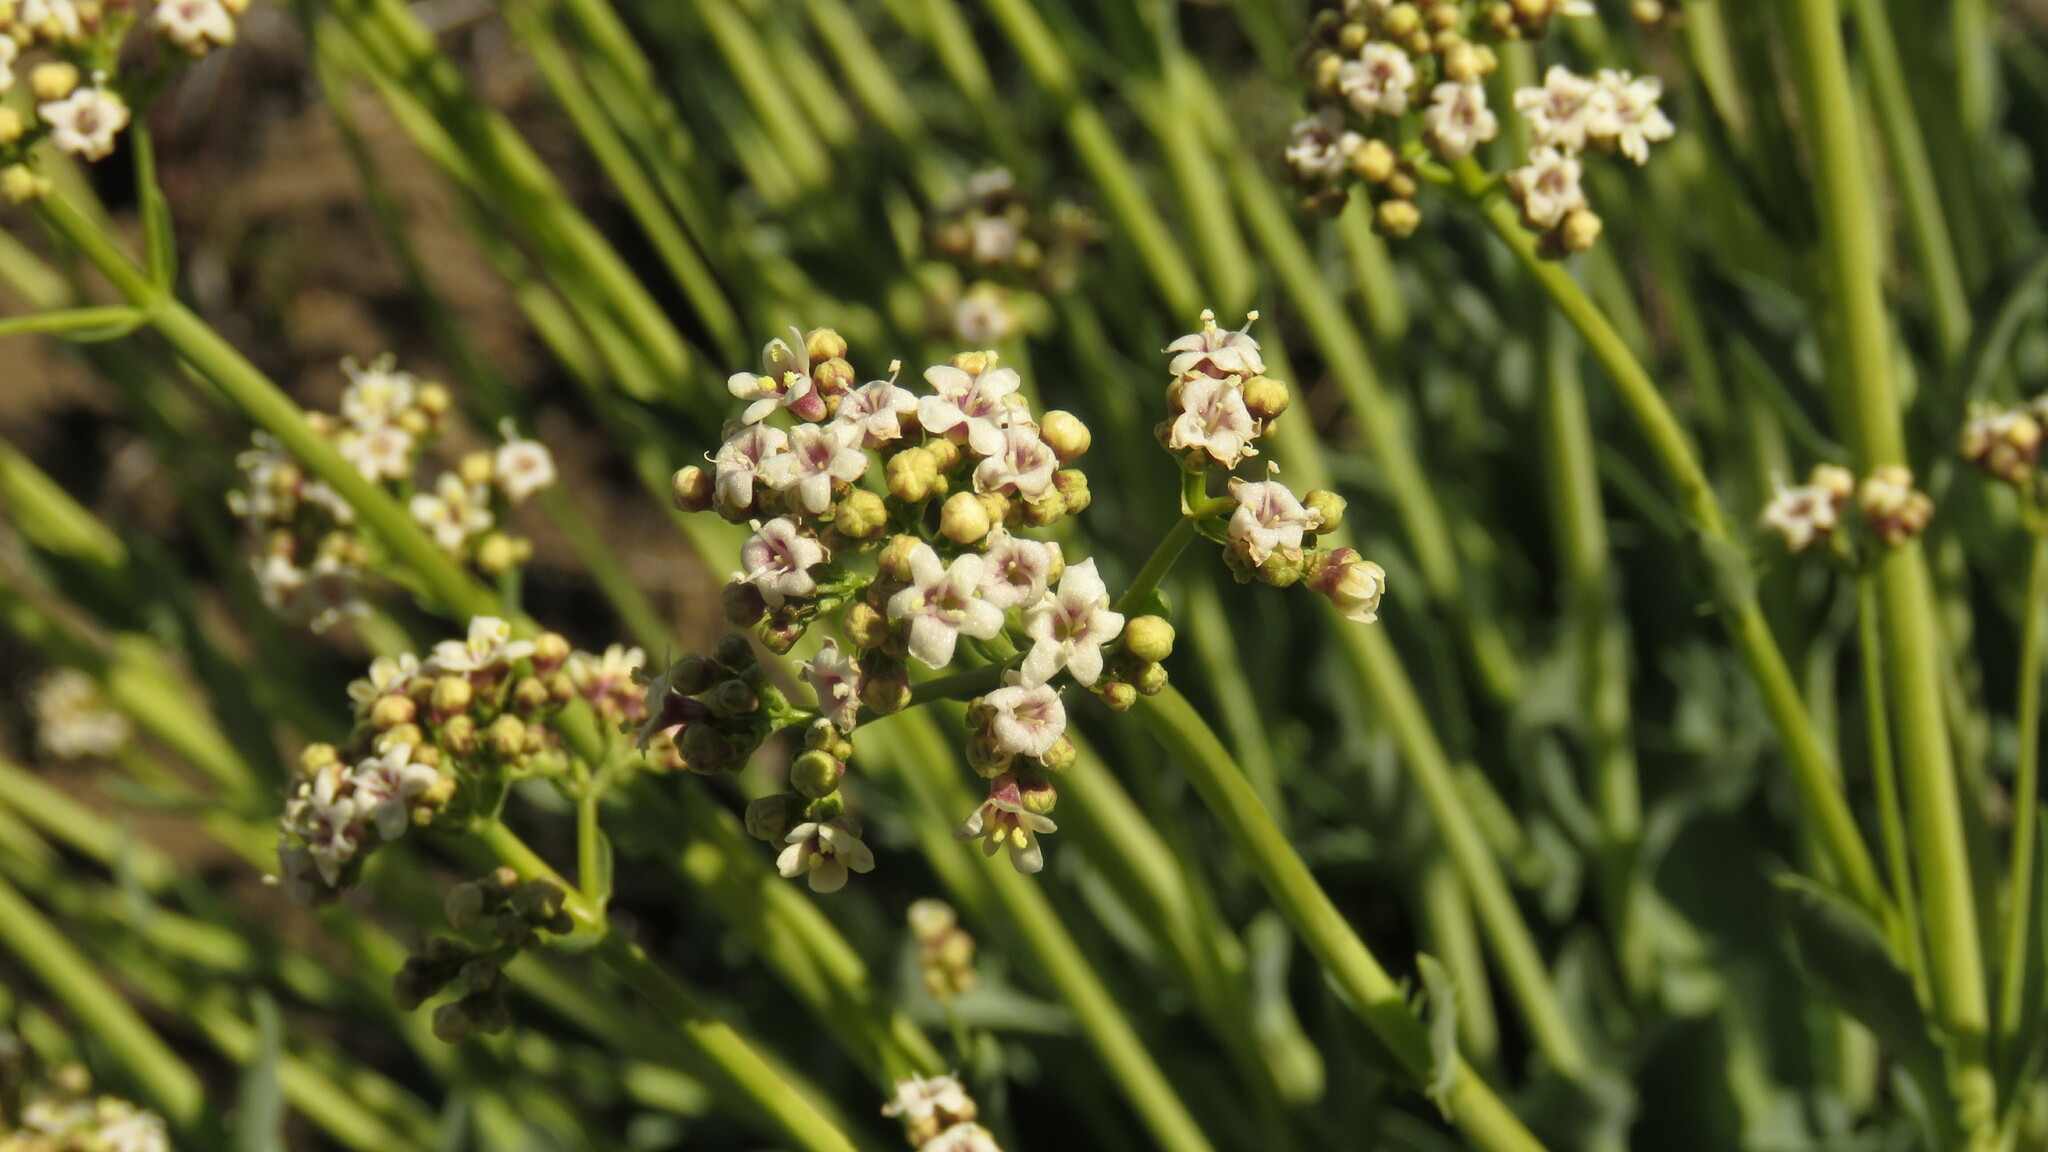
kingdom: Plantae
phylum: Tracheophyta
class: Magnoliopsida
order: Dipsacales
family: Caprifoliaceae
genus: Valeriana
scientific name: Valeriana carnosa
